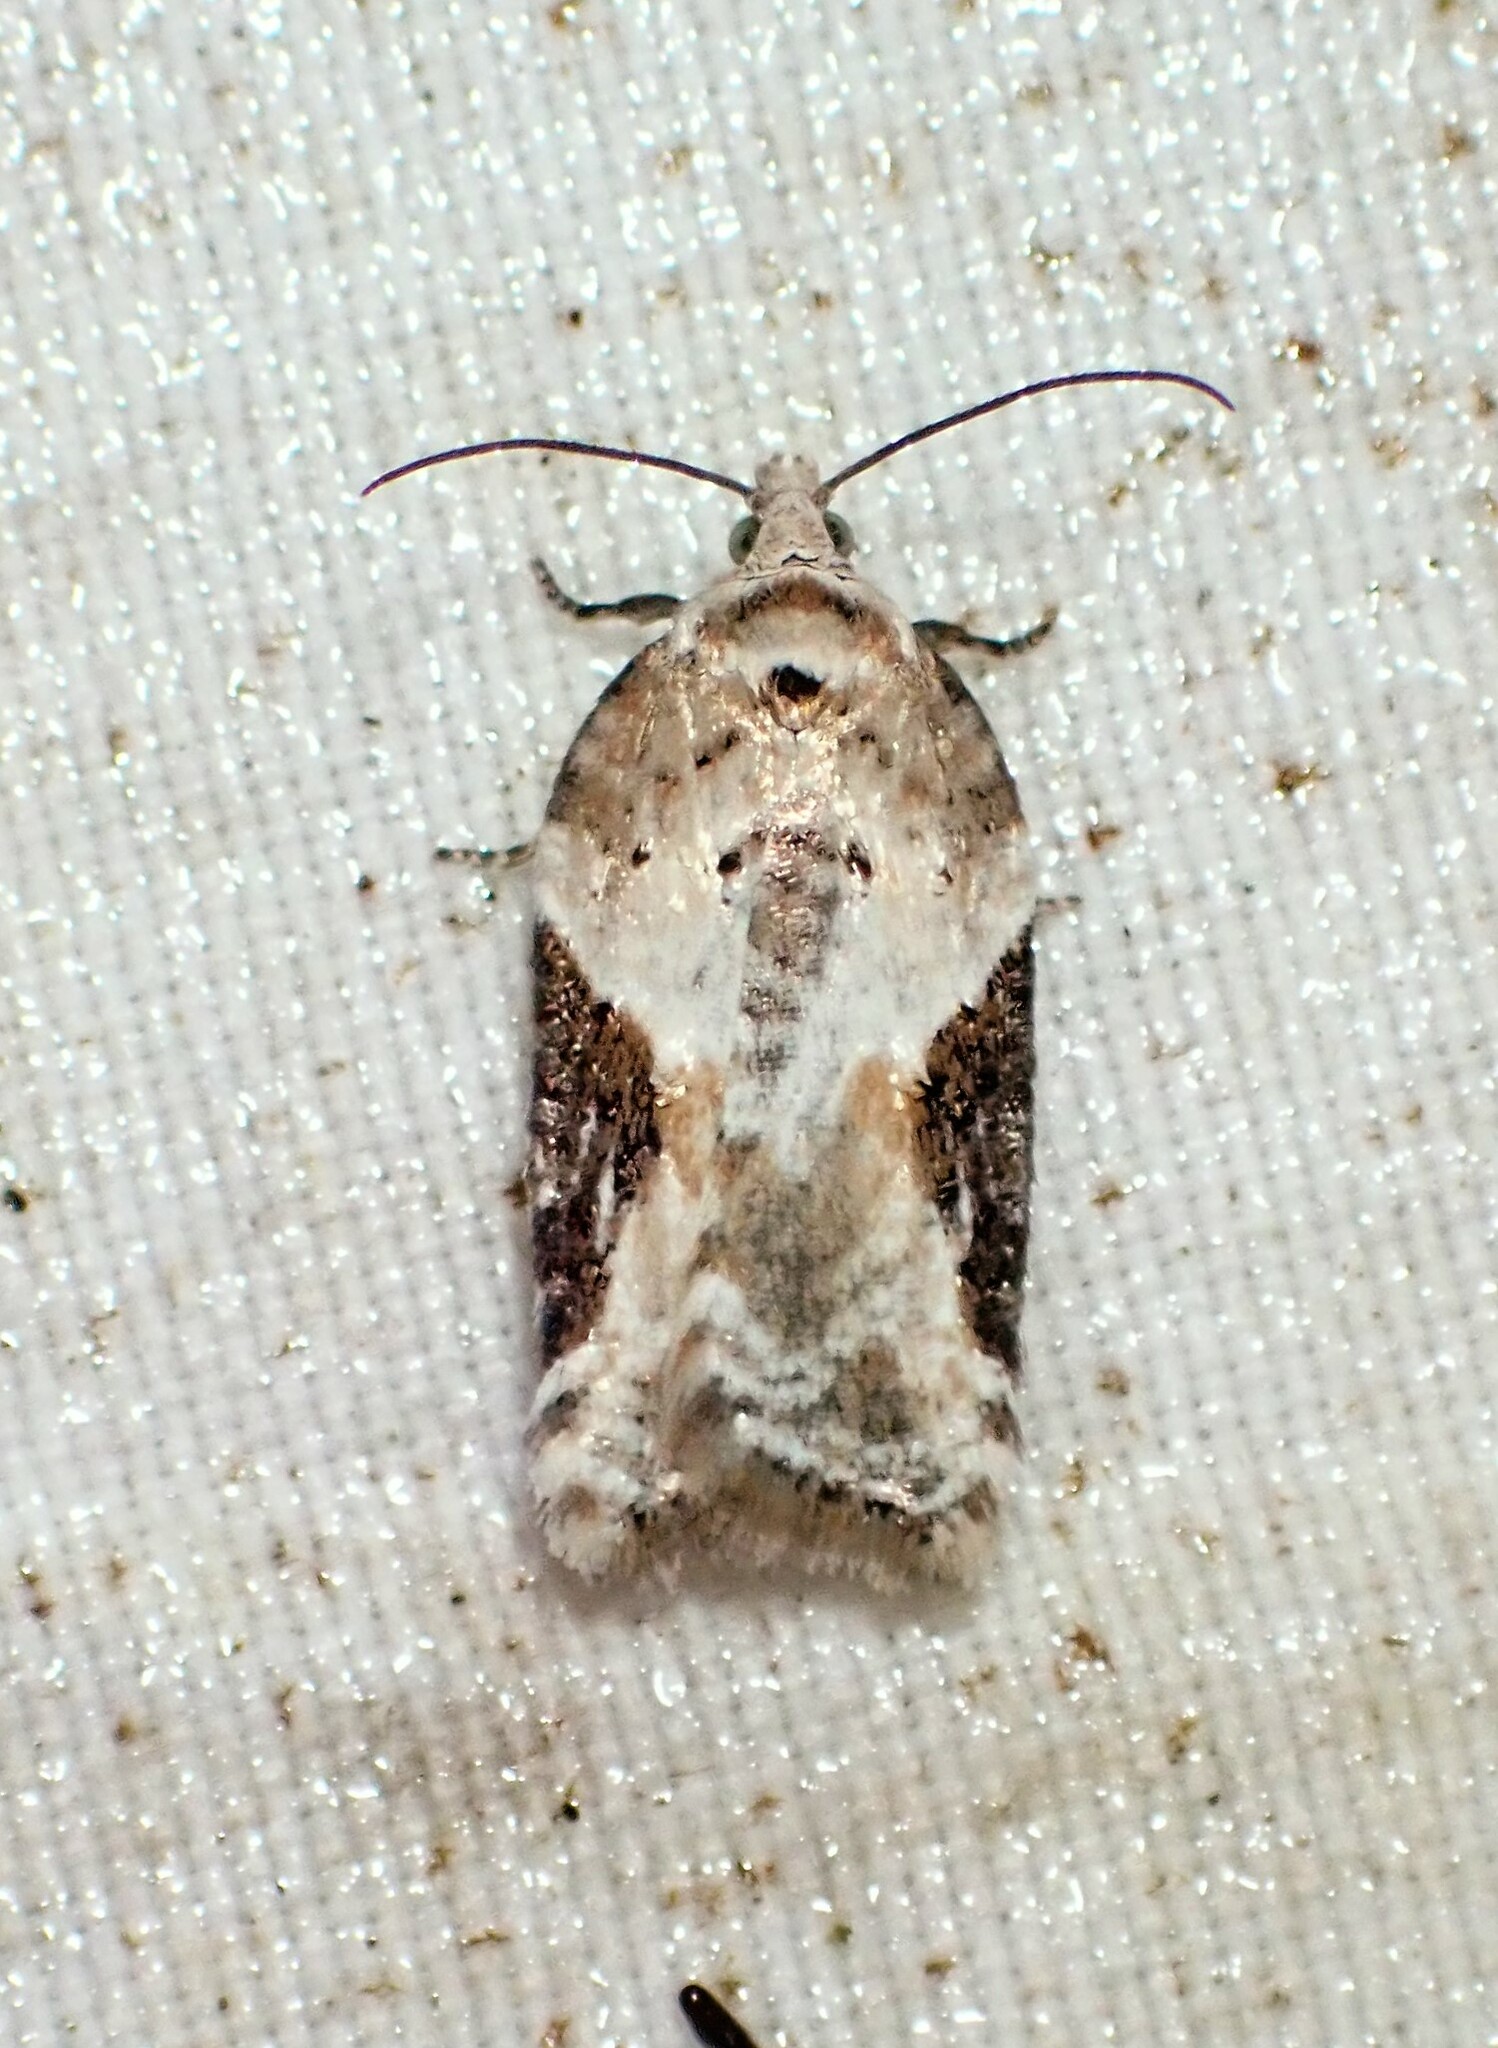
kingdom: Animalia
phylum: Arthropoda
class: Insecta
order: Lepidoptera
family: Tortricidae
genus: Acleris
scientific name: Acleris forbesana
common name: Forbes' acleris moth
